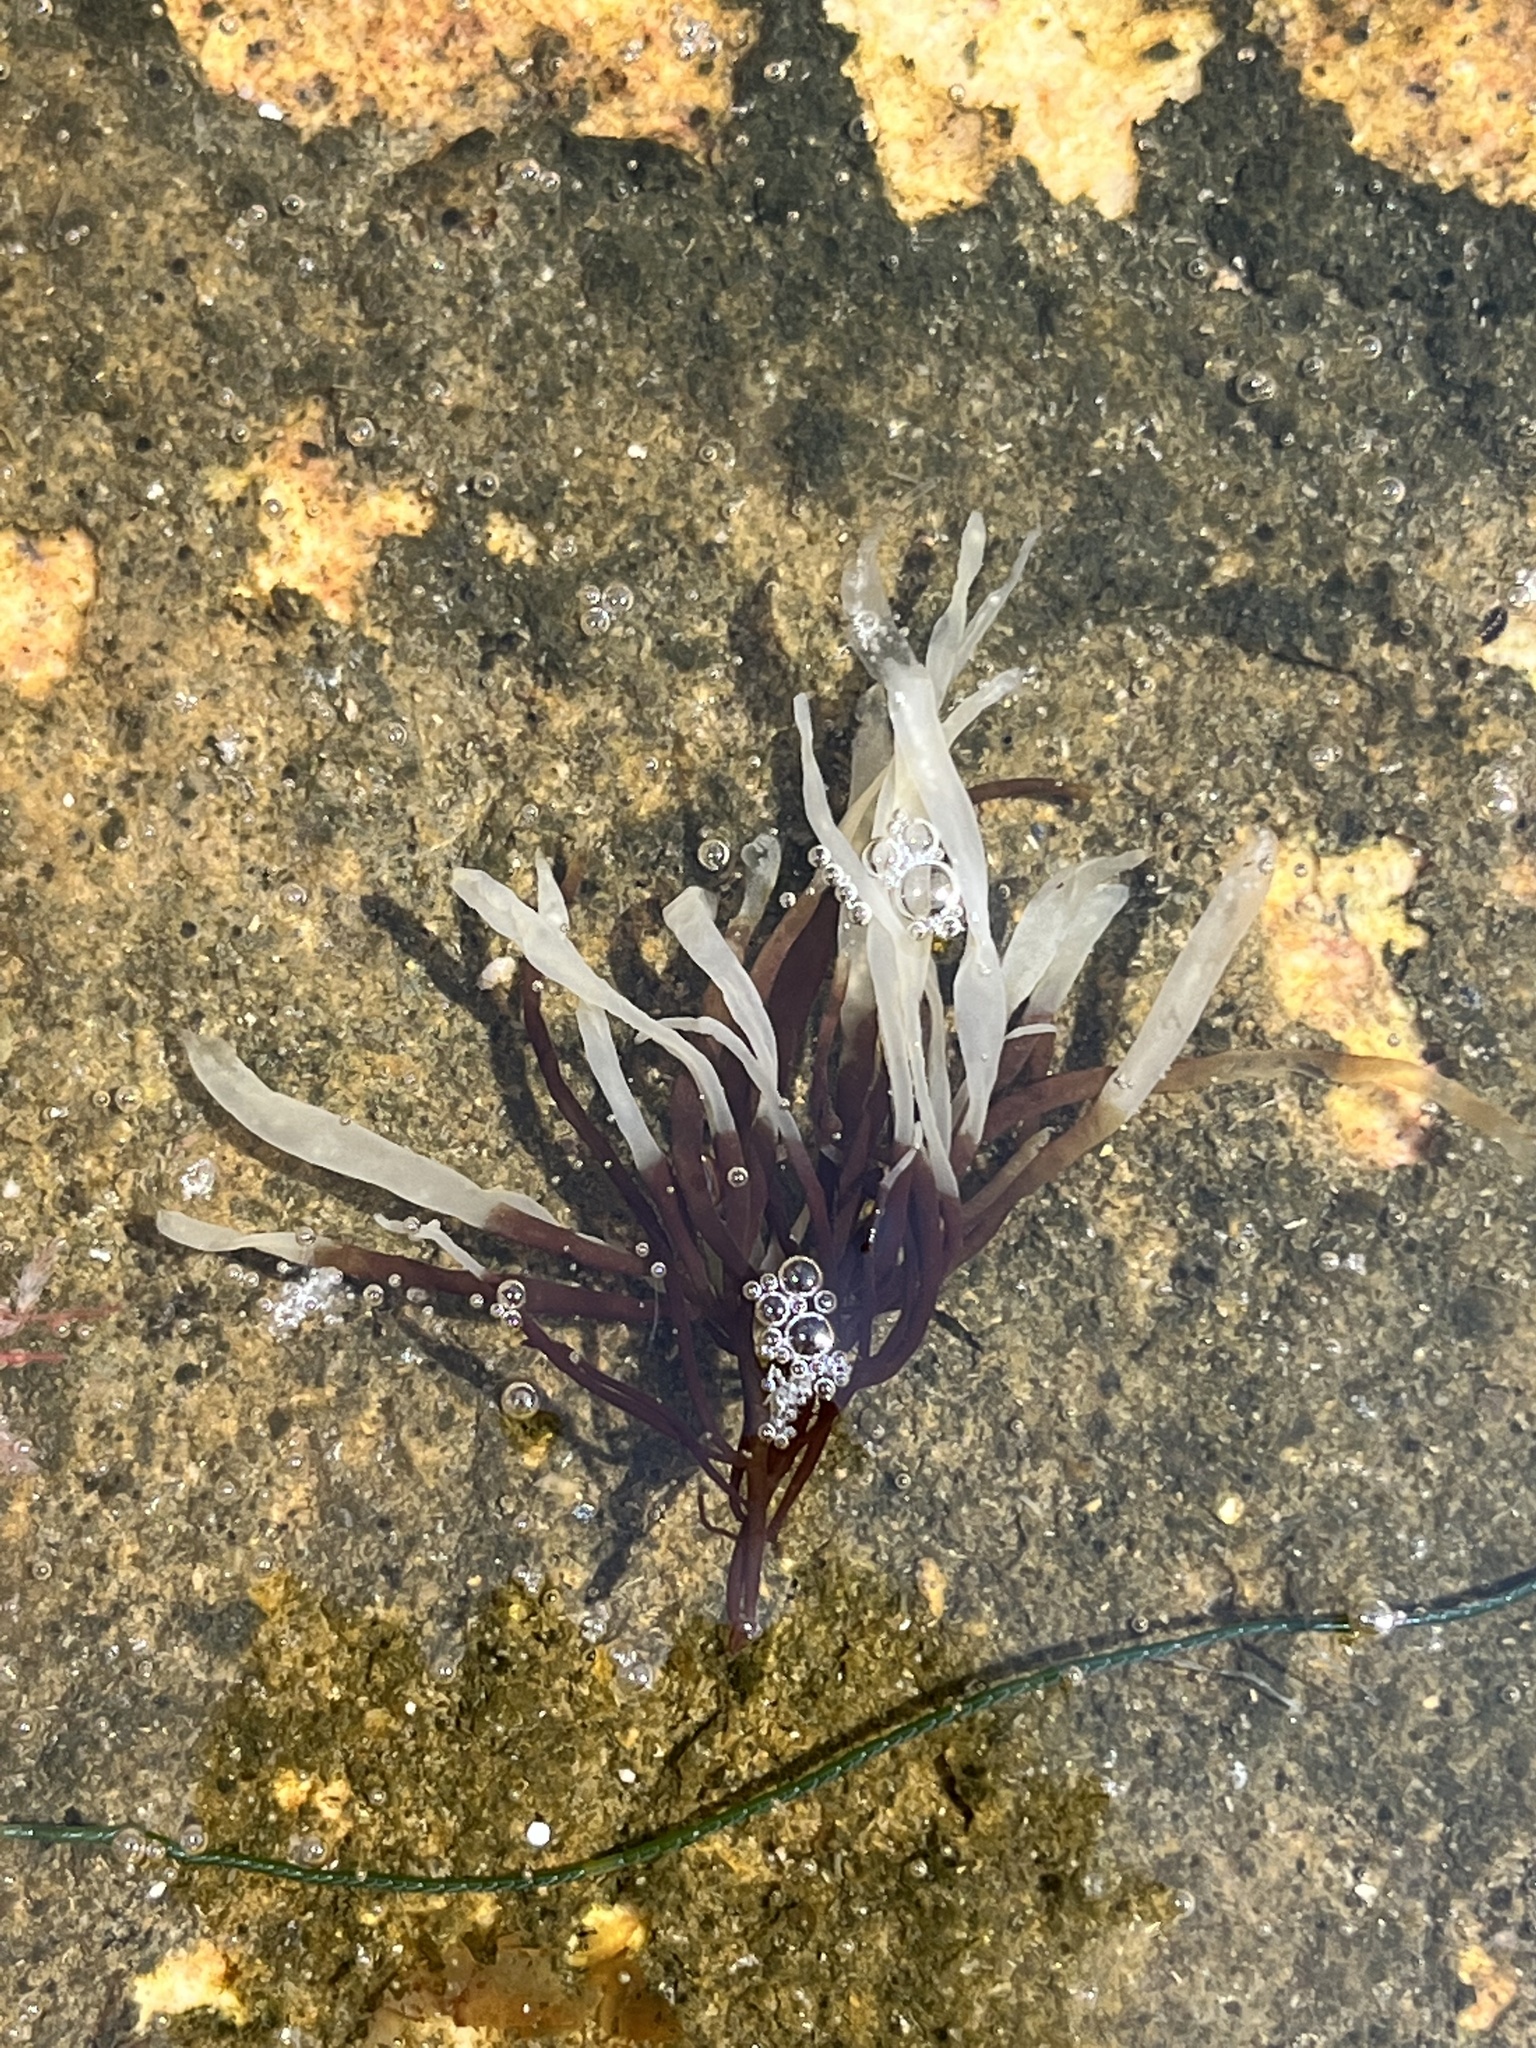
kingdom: Plantae
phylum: Rhodophyta
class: Florideophyceae
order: Gigartinales
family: Gigartinaceae
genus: Chondrus
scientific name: Chondrus crispus
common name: Carrageen
